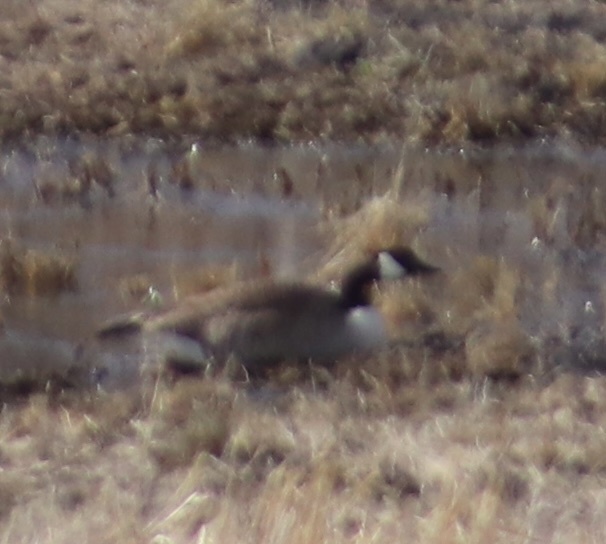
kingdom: Animalia
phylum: Chordata
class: Aves
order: Anseriformes
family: Anatidae
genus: Branta
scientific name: Branta canadensis
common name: Canada goose
